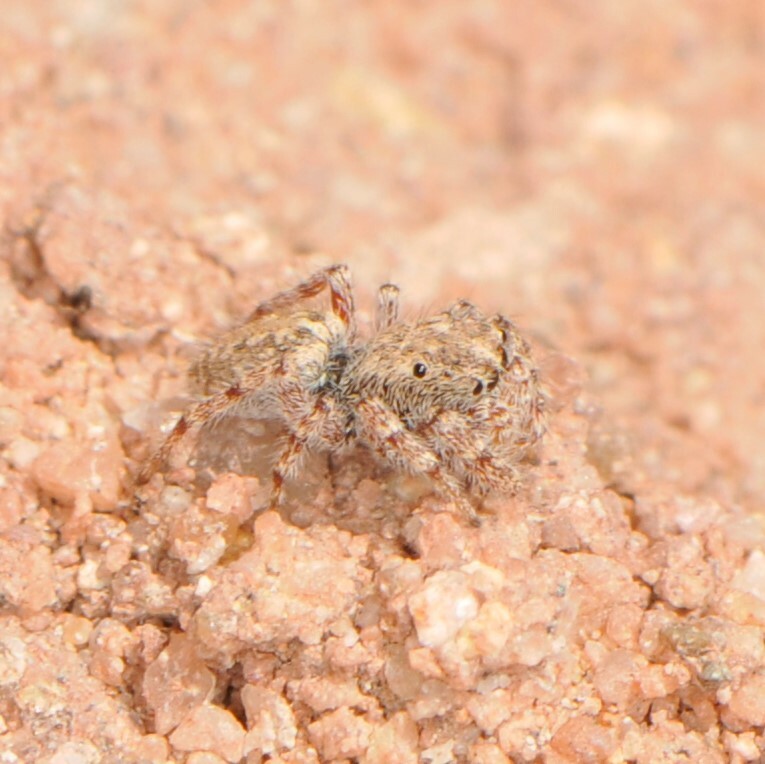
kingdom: Animalia
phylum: Arthropoda
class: Arachnida
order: Araneae
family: Salticidae
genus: Terralonus
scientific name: Terralonus
